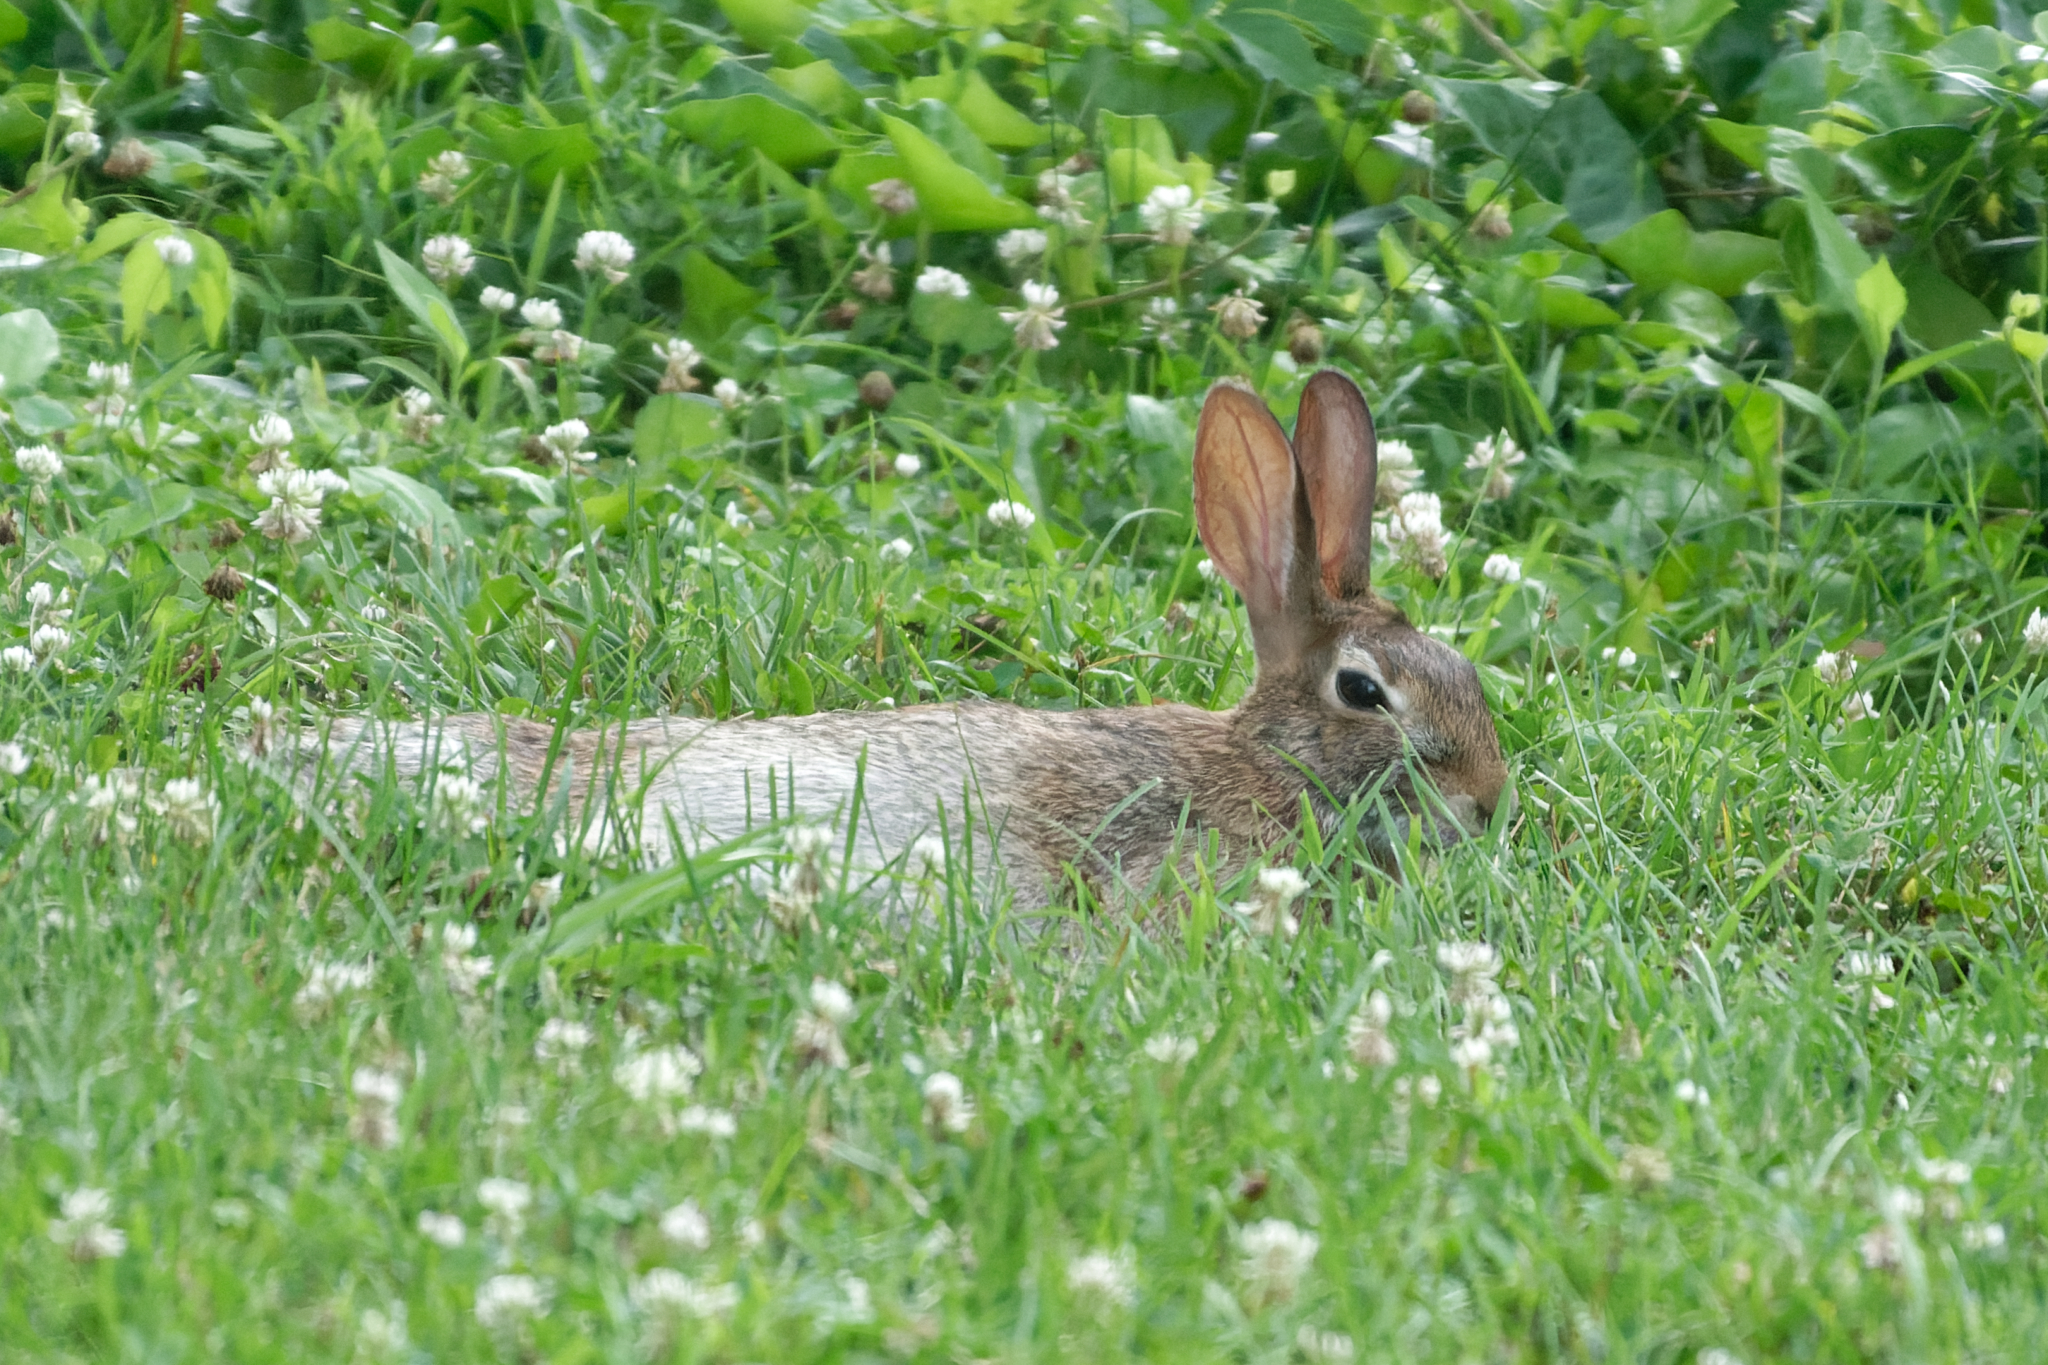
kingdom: Animalia
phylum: Chordata
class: Mammalia
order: Lagomorpha
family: Leporidae
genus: Sylvilagus
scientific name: Sylvilagus floridanus
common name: Eastern cottontail
